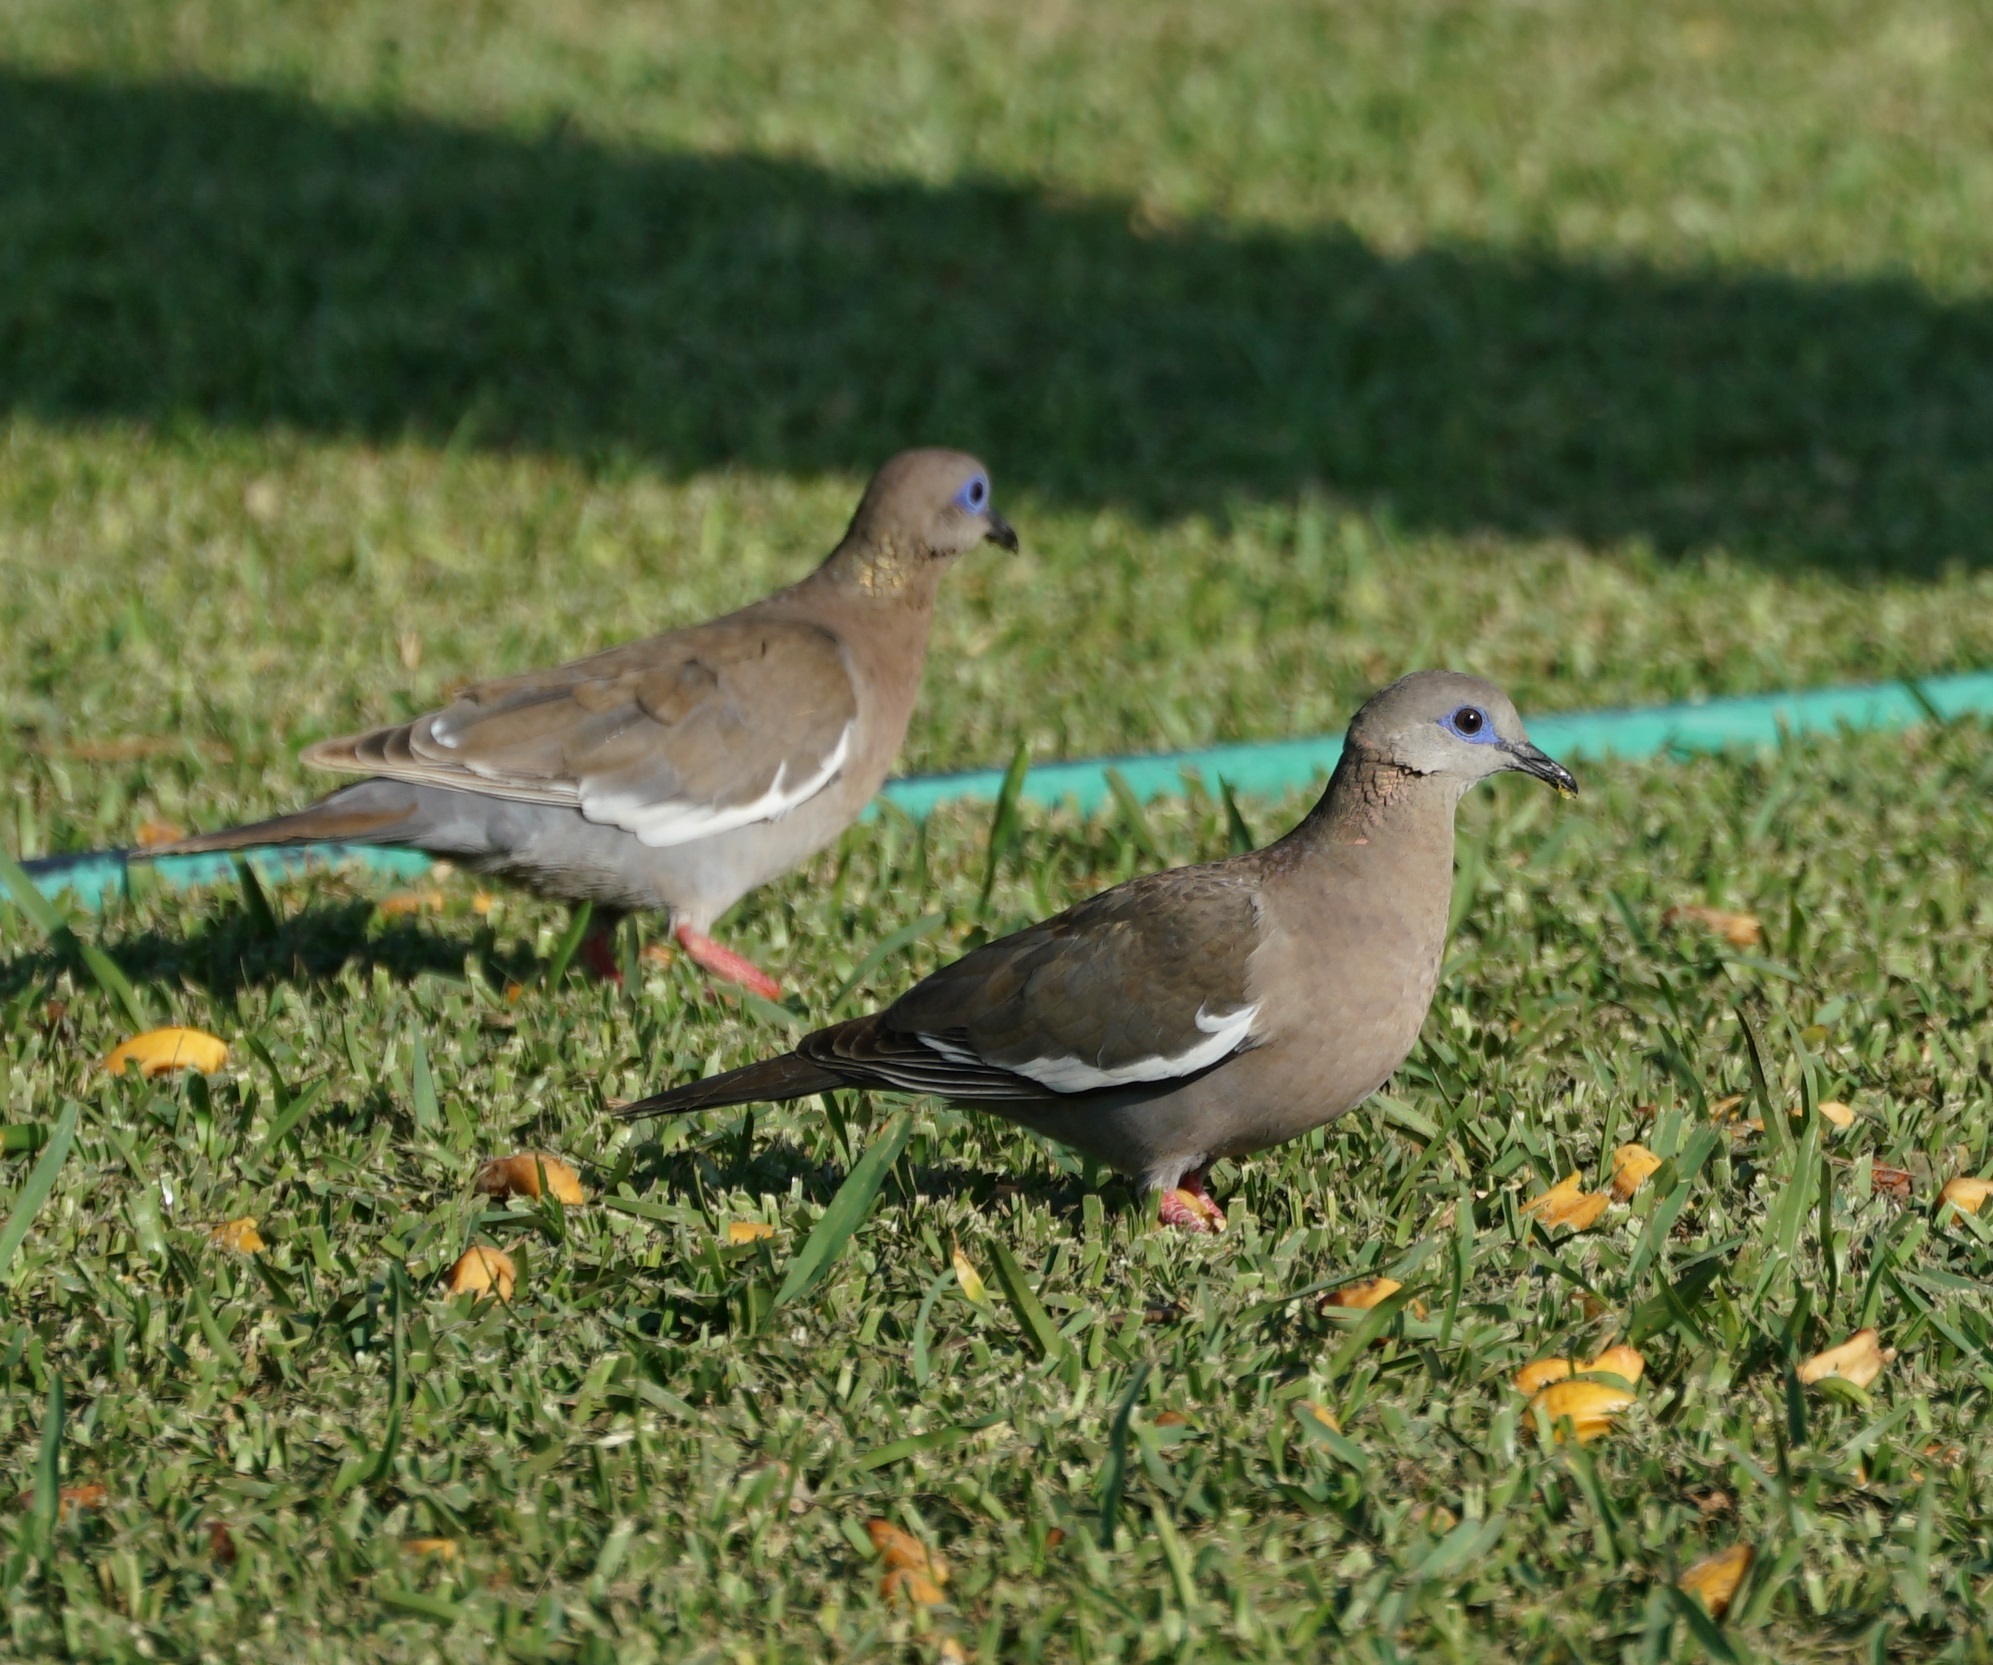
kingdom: Animalia
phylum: Chordata
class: Aves
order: Columbiformes
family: Columbidae
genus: Zenaida
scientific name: Zenaida meloda
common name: West peruvian dove
